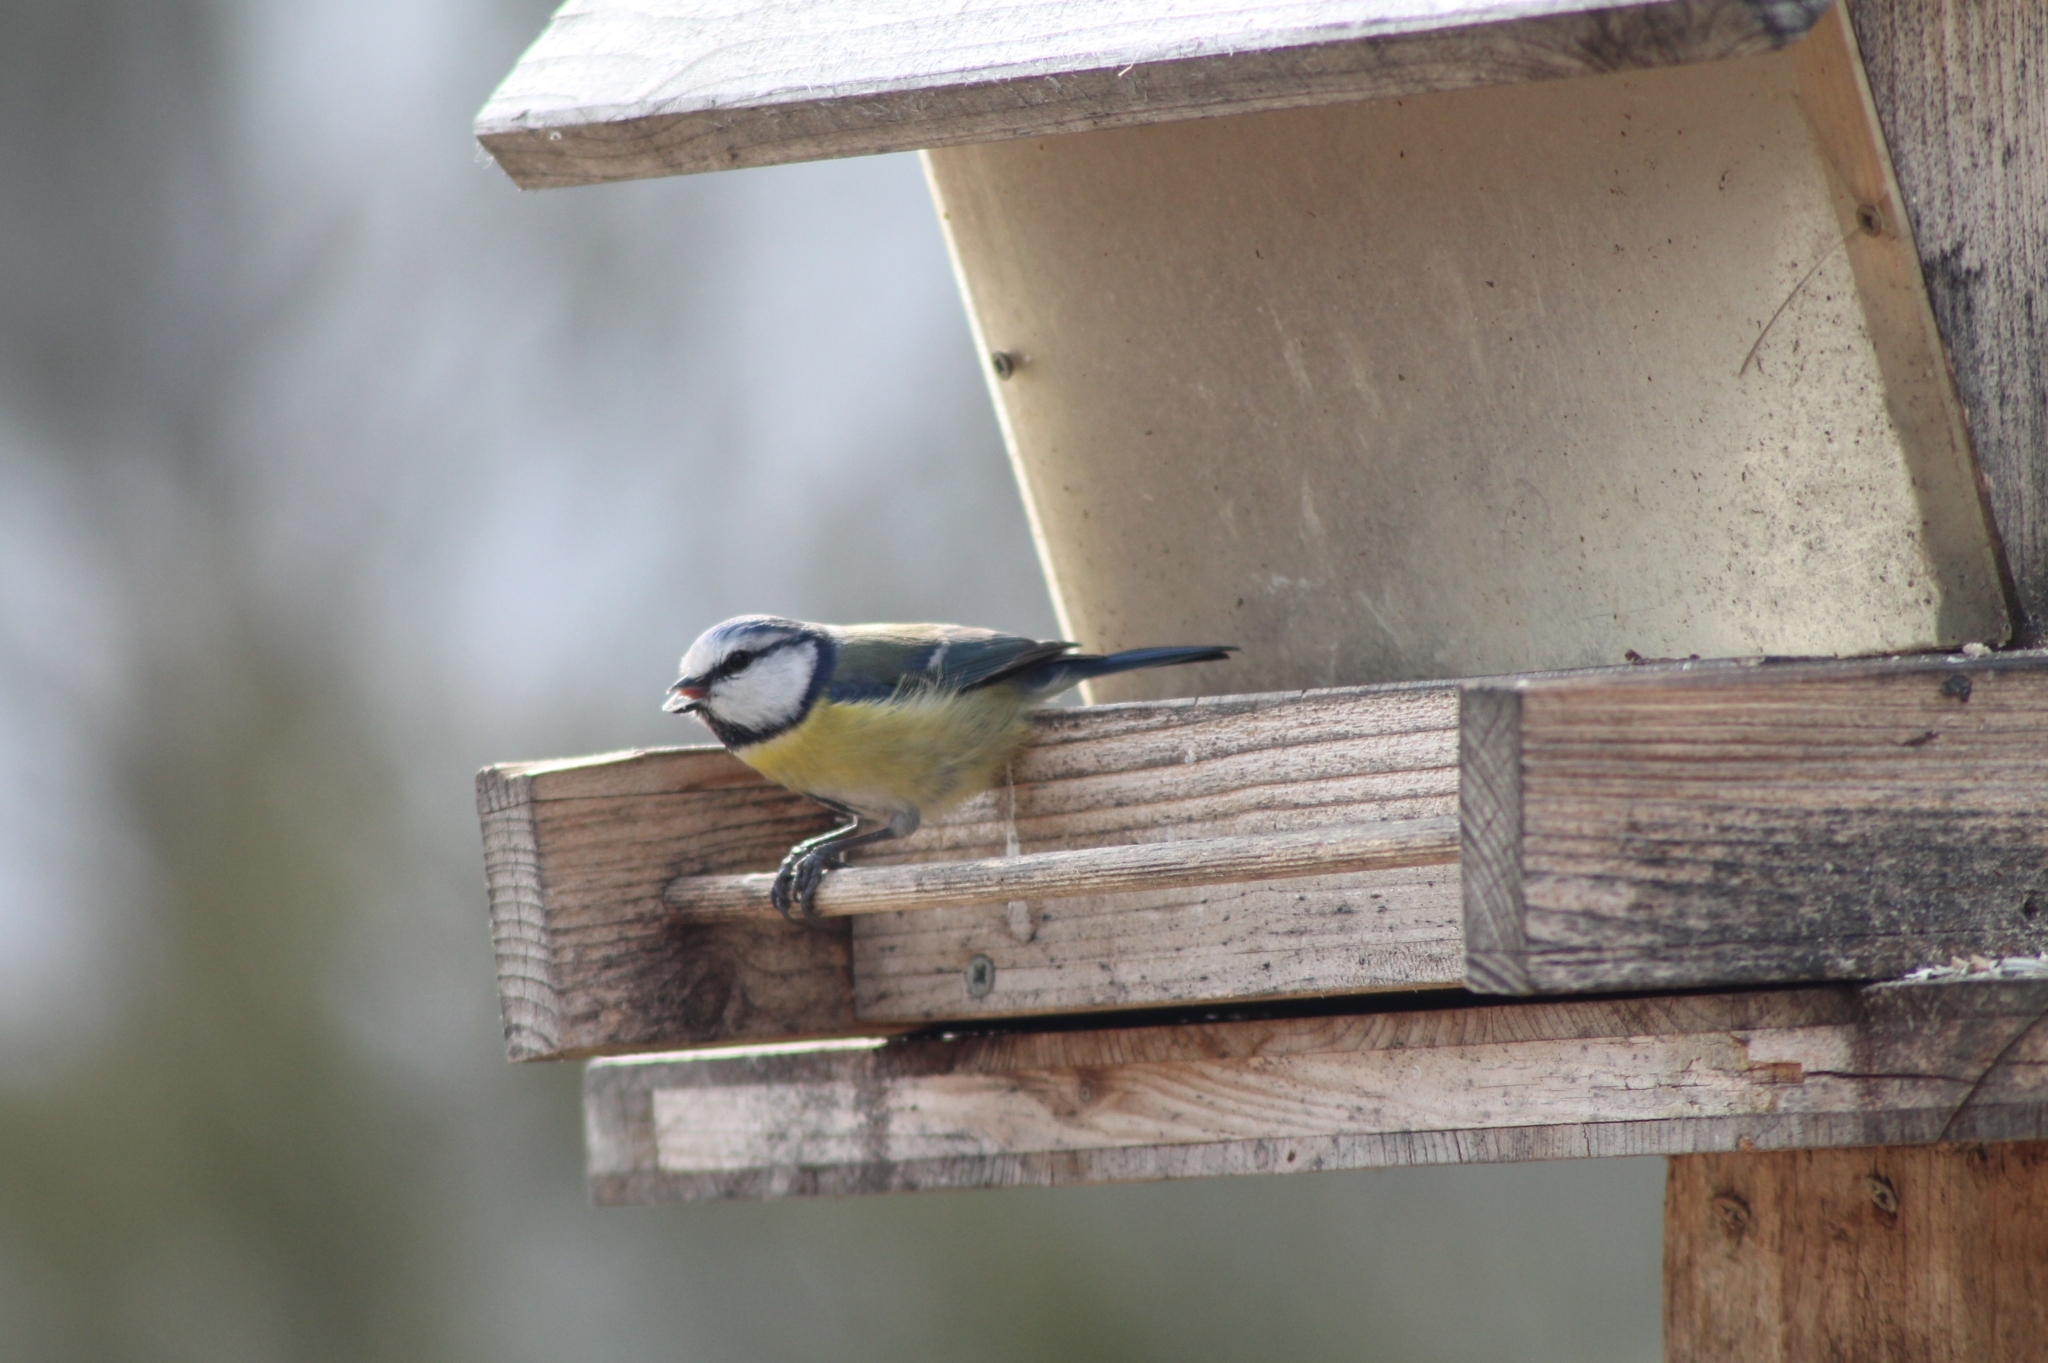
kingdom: Animalia
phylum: Chordata
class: Aves
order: Passeriformes
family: Paridae
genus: Cyanistes
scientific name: Cyanistes caeruleus
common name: Eurasian blue tit
